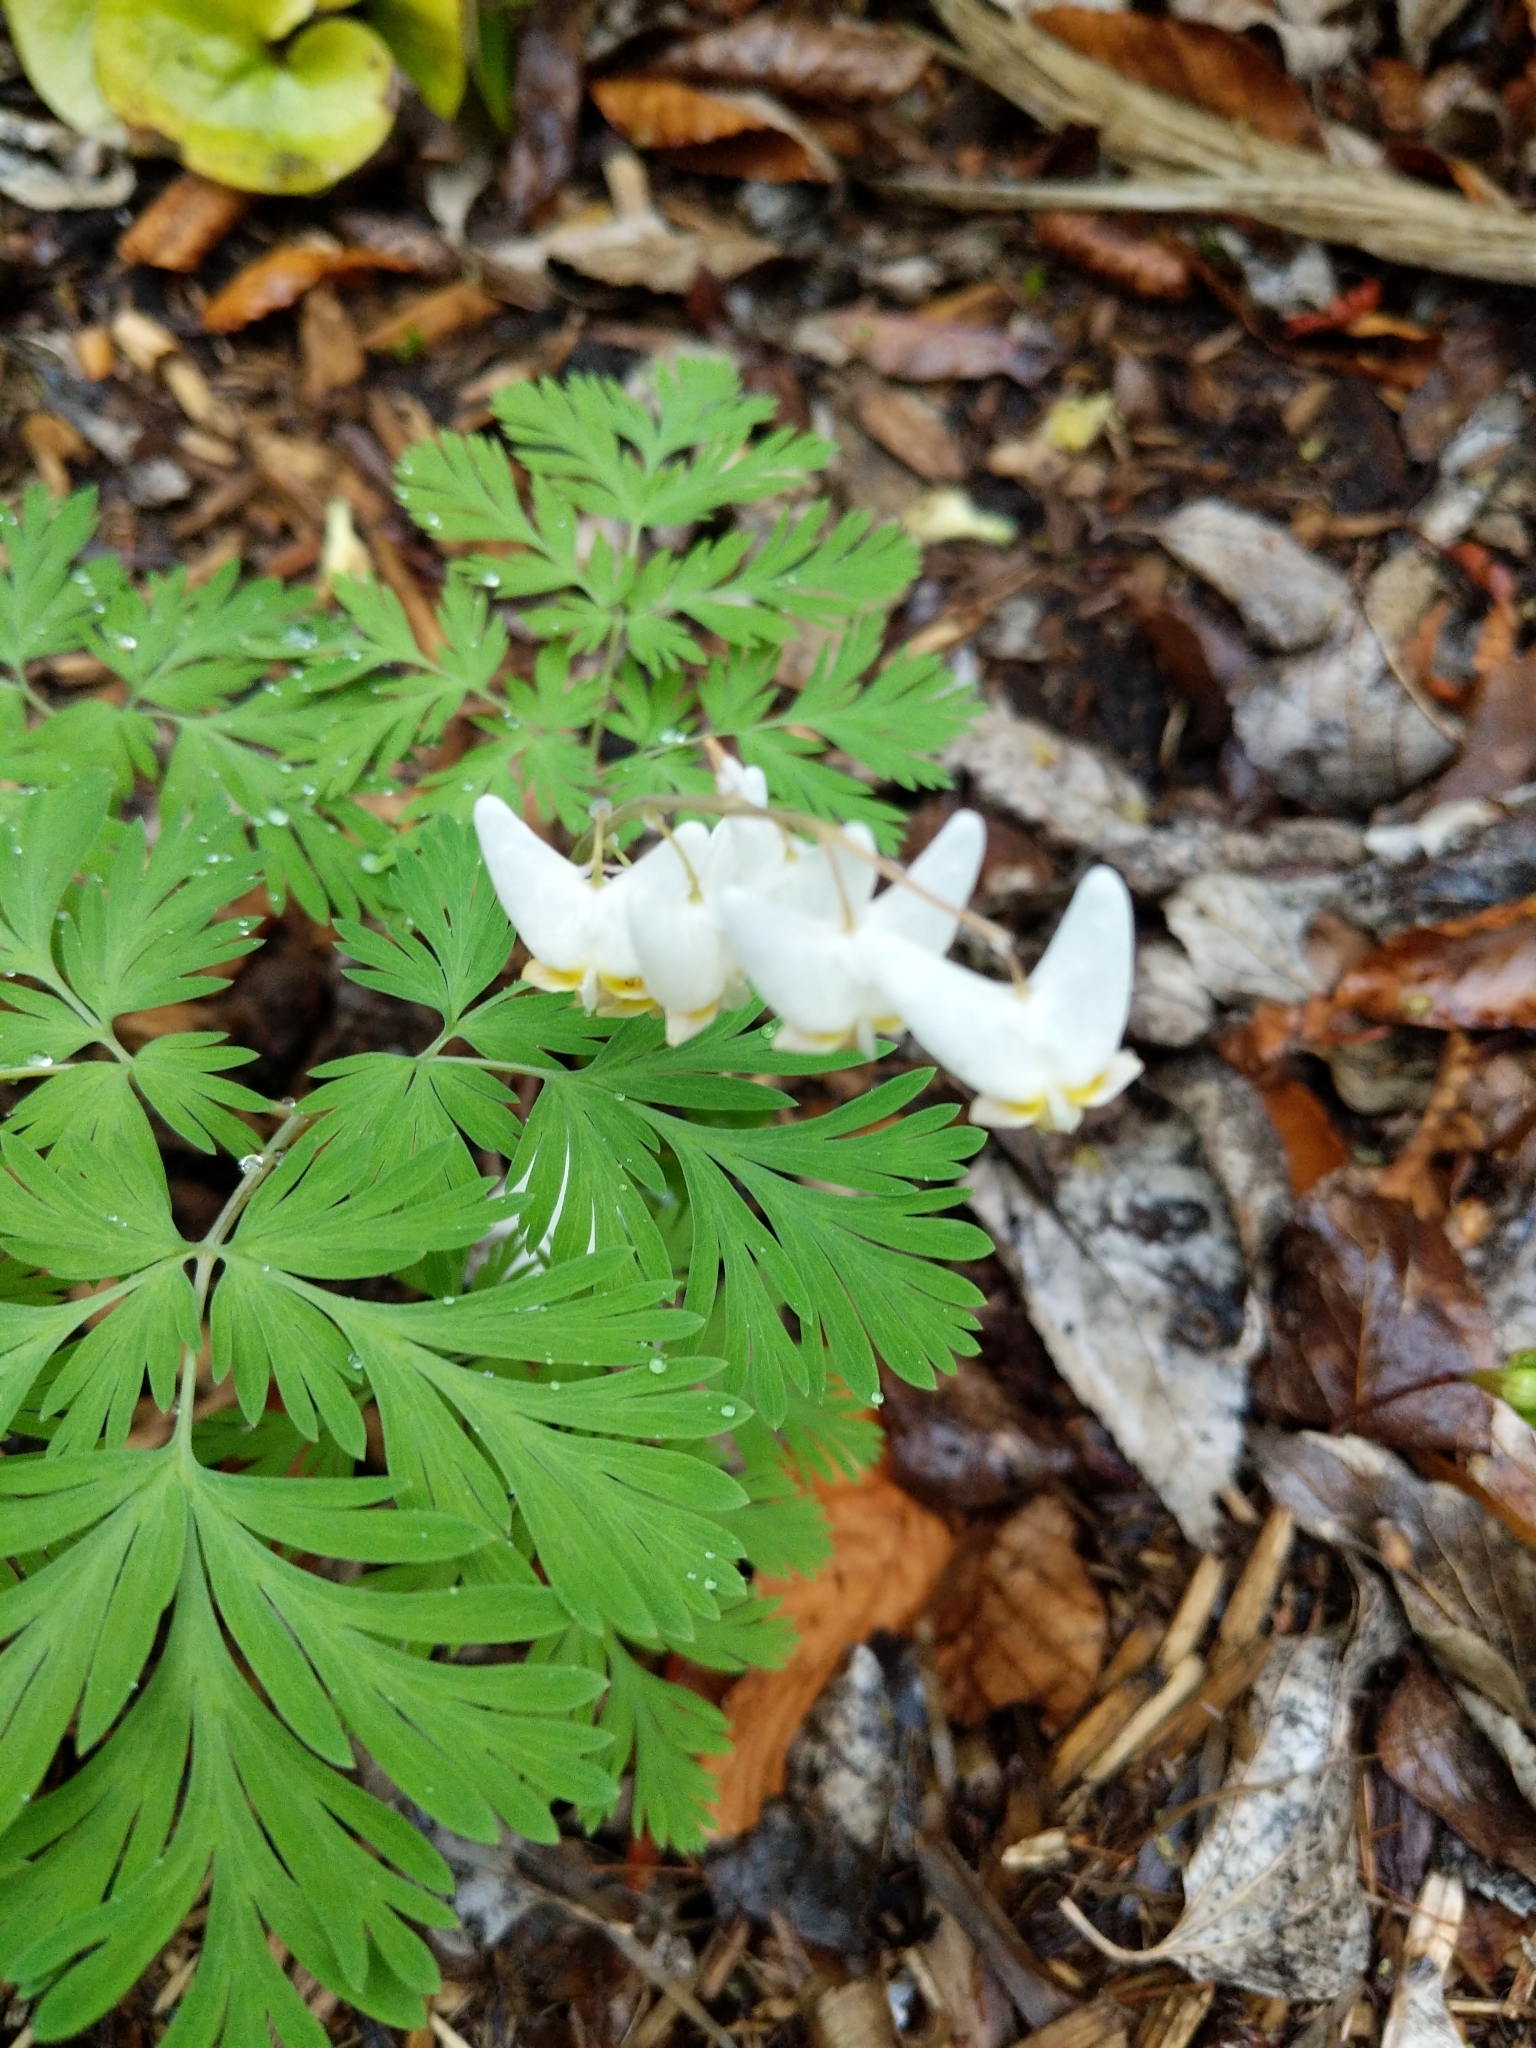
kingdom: Plantae
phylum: Tracheophyta
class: Magnoliopsida
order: Ranunculales
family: Papaveraceae
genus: Dicentra
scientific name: Dicentra cucullaria
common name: Dutchman's breeches
